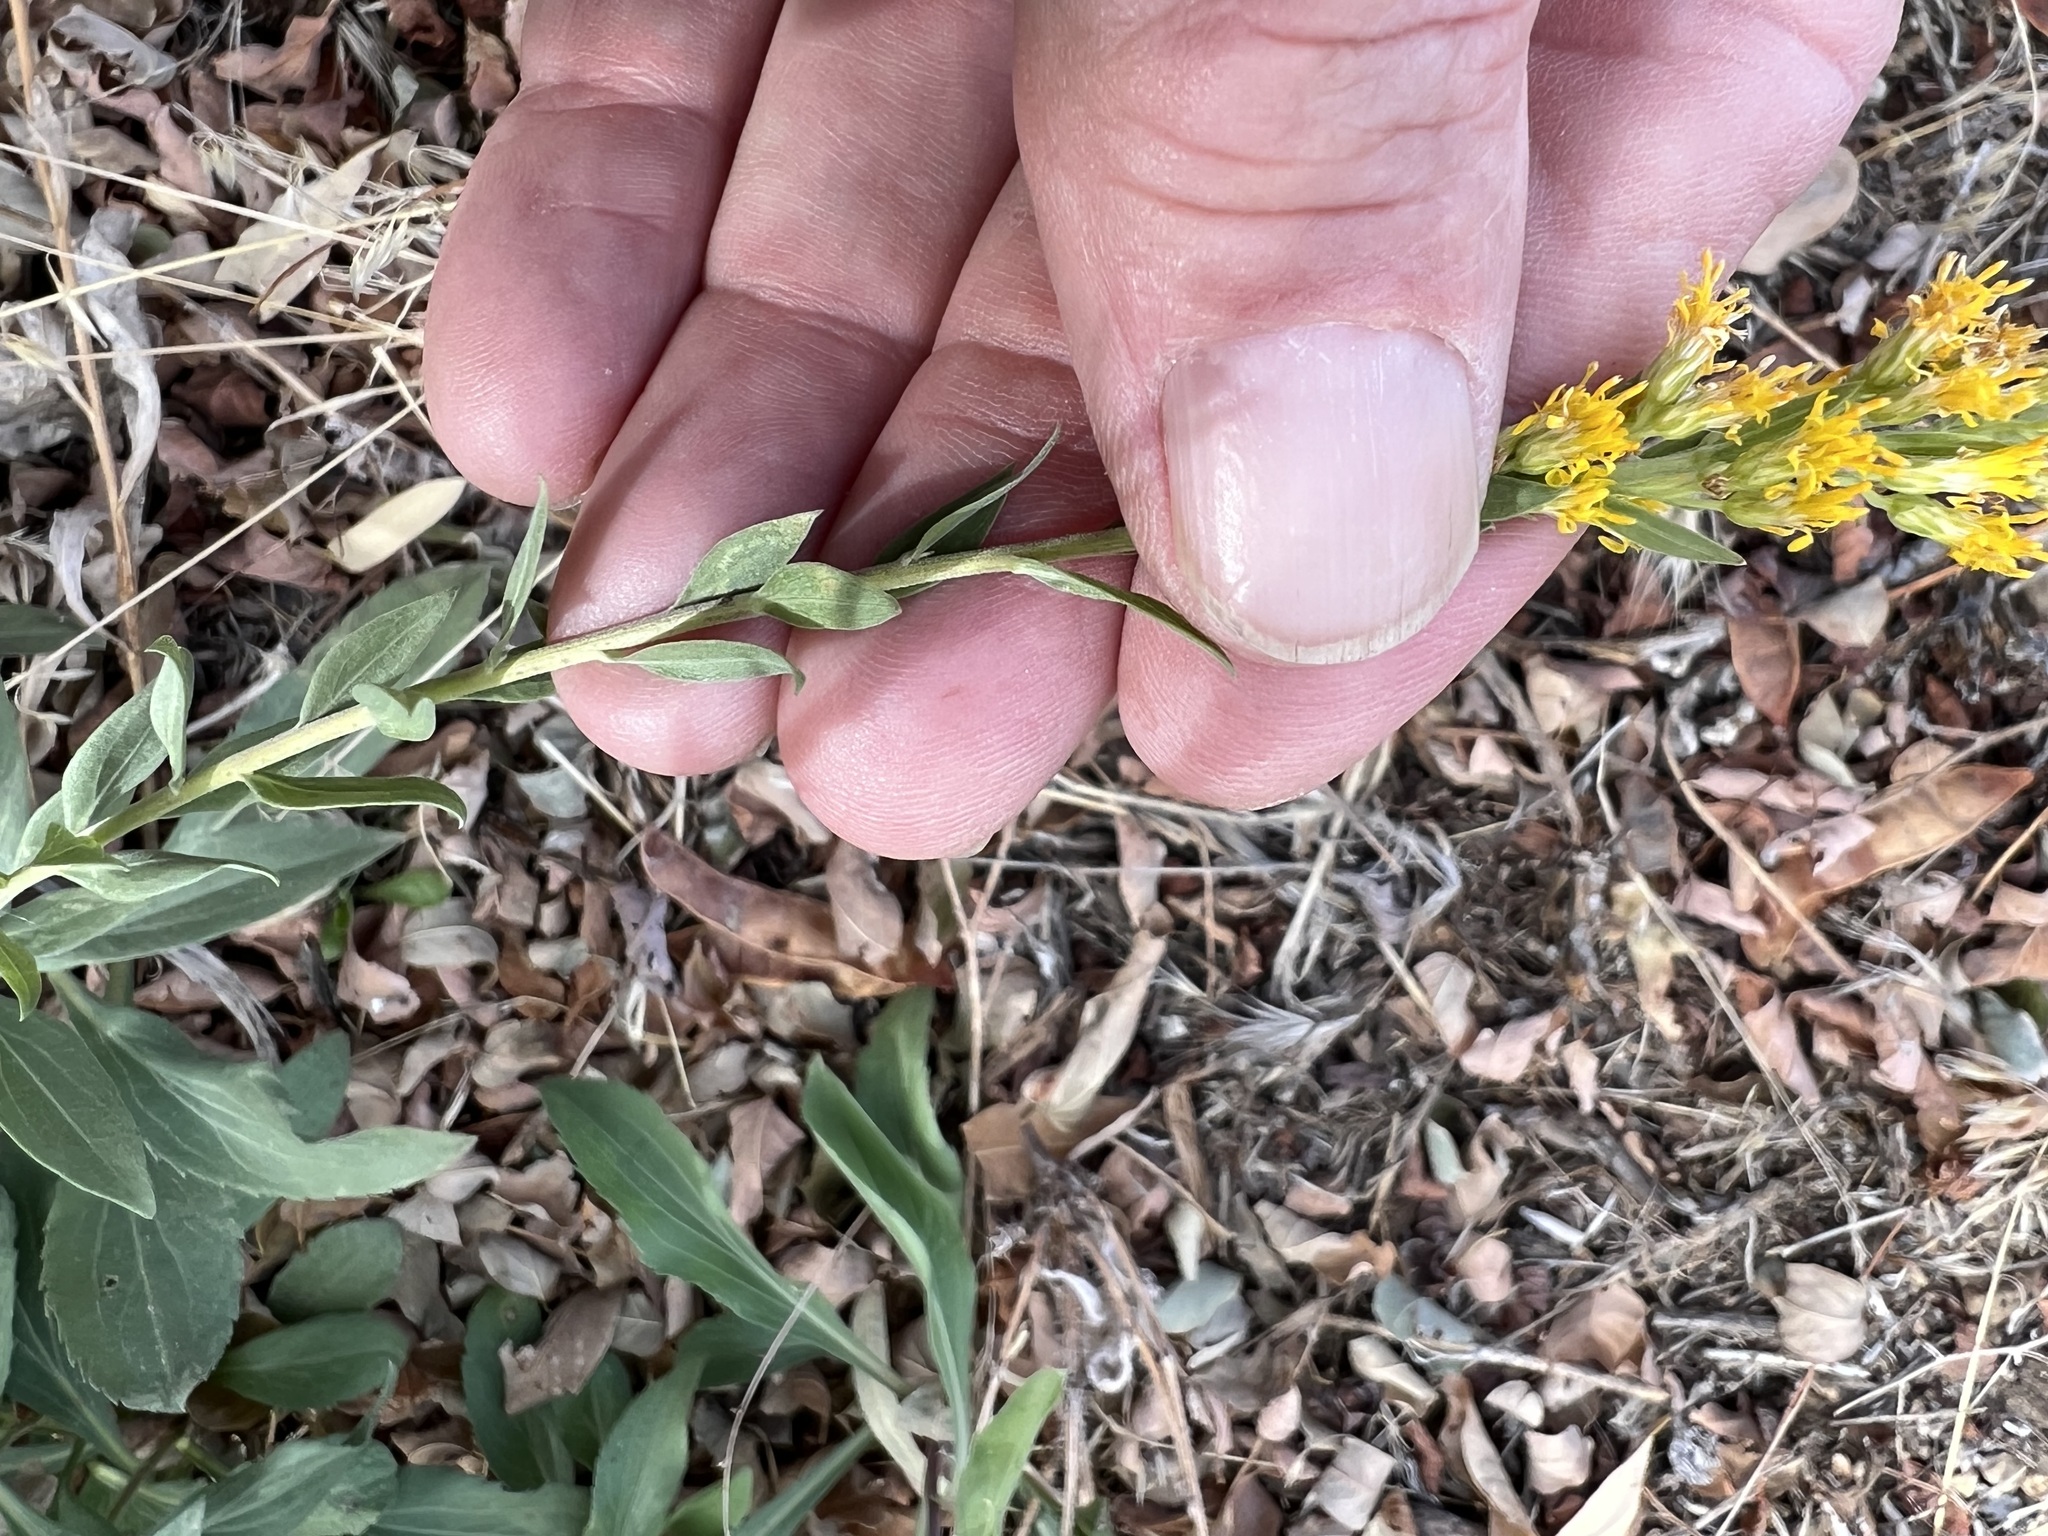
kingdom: Plantae
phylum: Tracheophyta
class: Magnoliopsida
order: Asterales
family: Asteraceae
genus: Solidago
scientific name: Solidago californica
